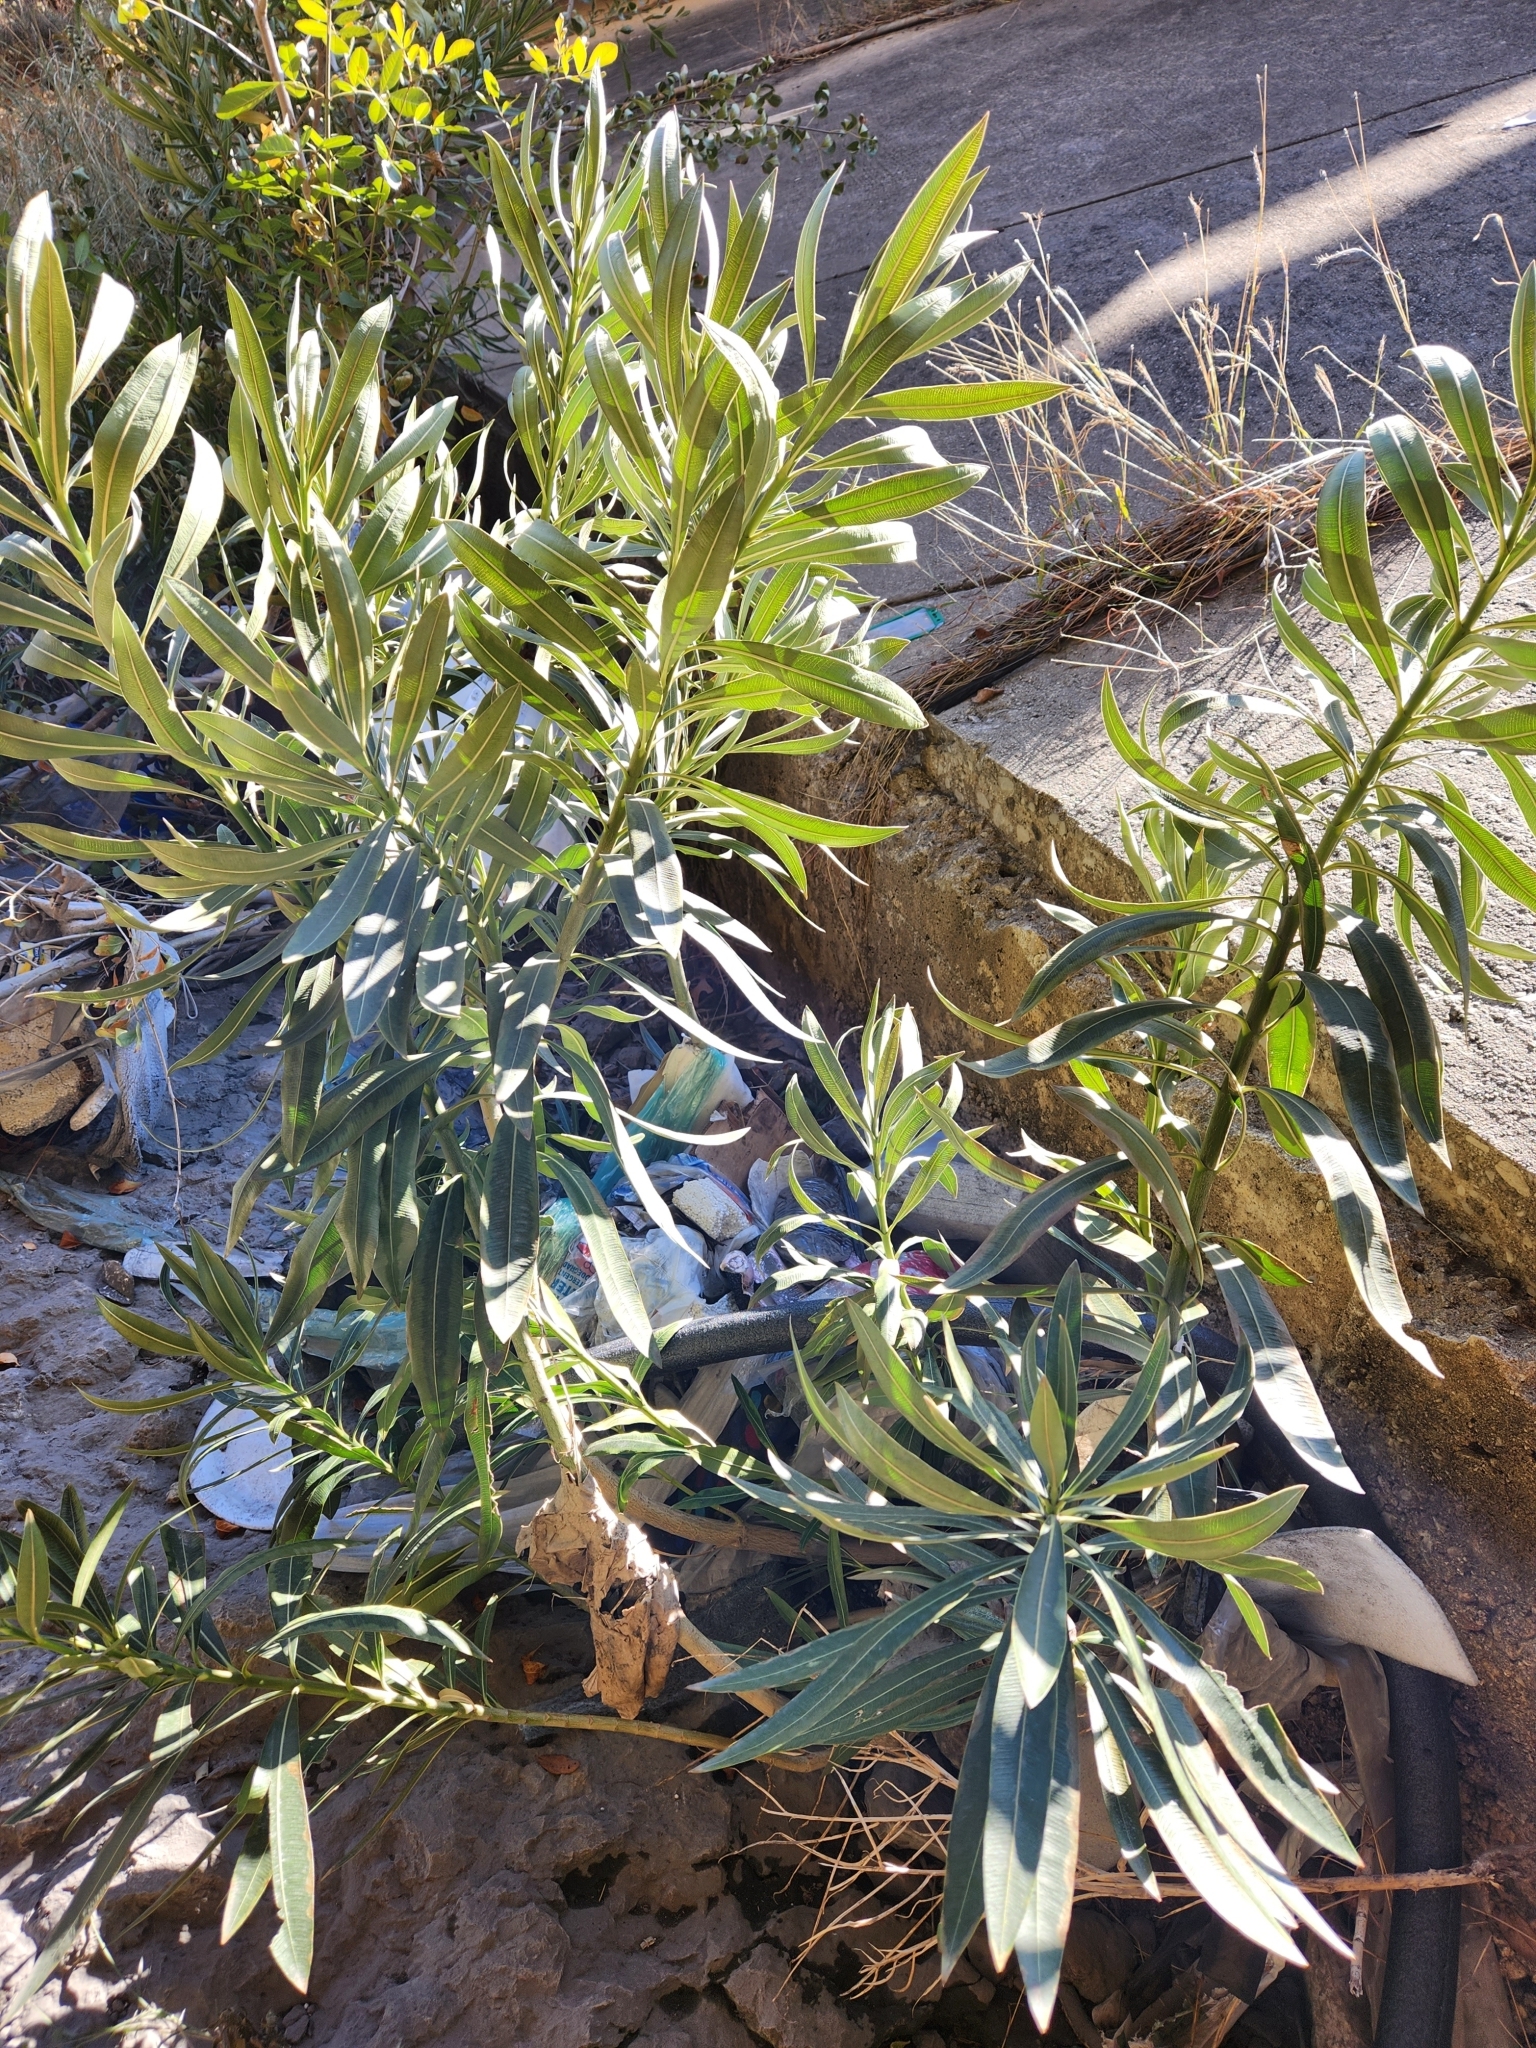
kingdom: Plantae
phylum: Tracheophyta
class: Magnoliopsida
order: Gentianales
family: Apocynaceae
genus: Nerium
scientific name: Nerium oleander
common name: Oleander
